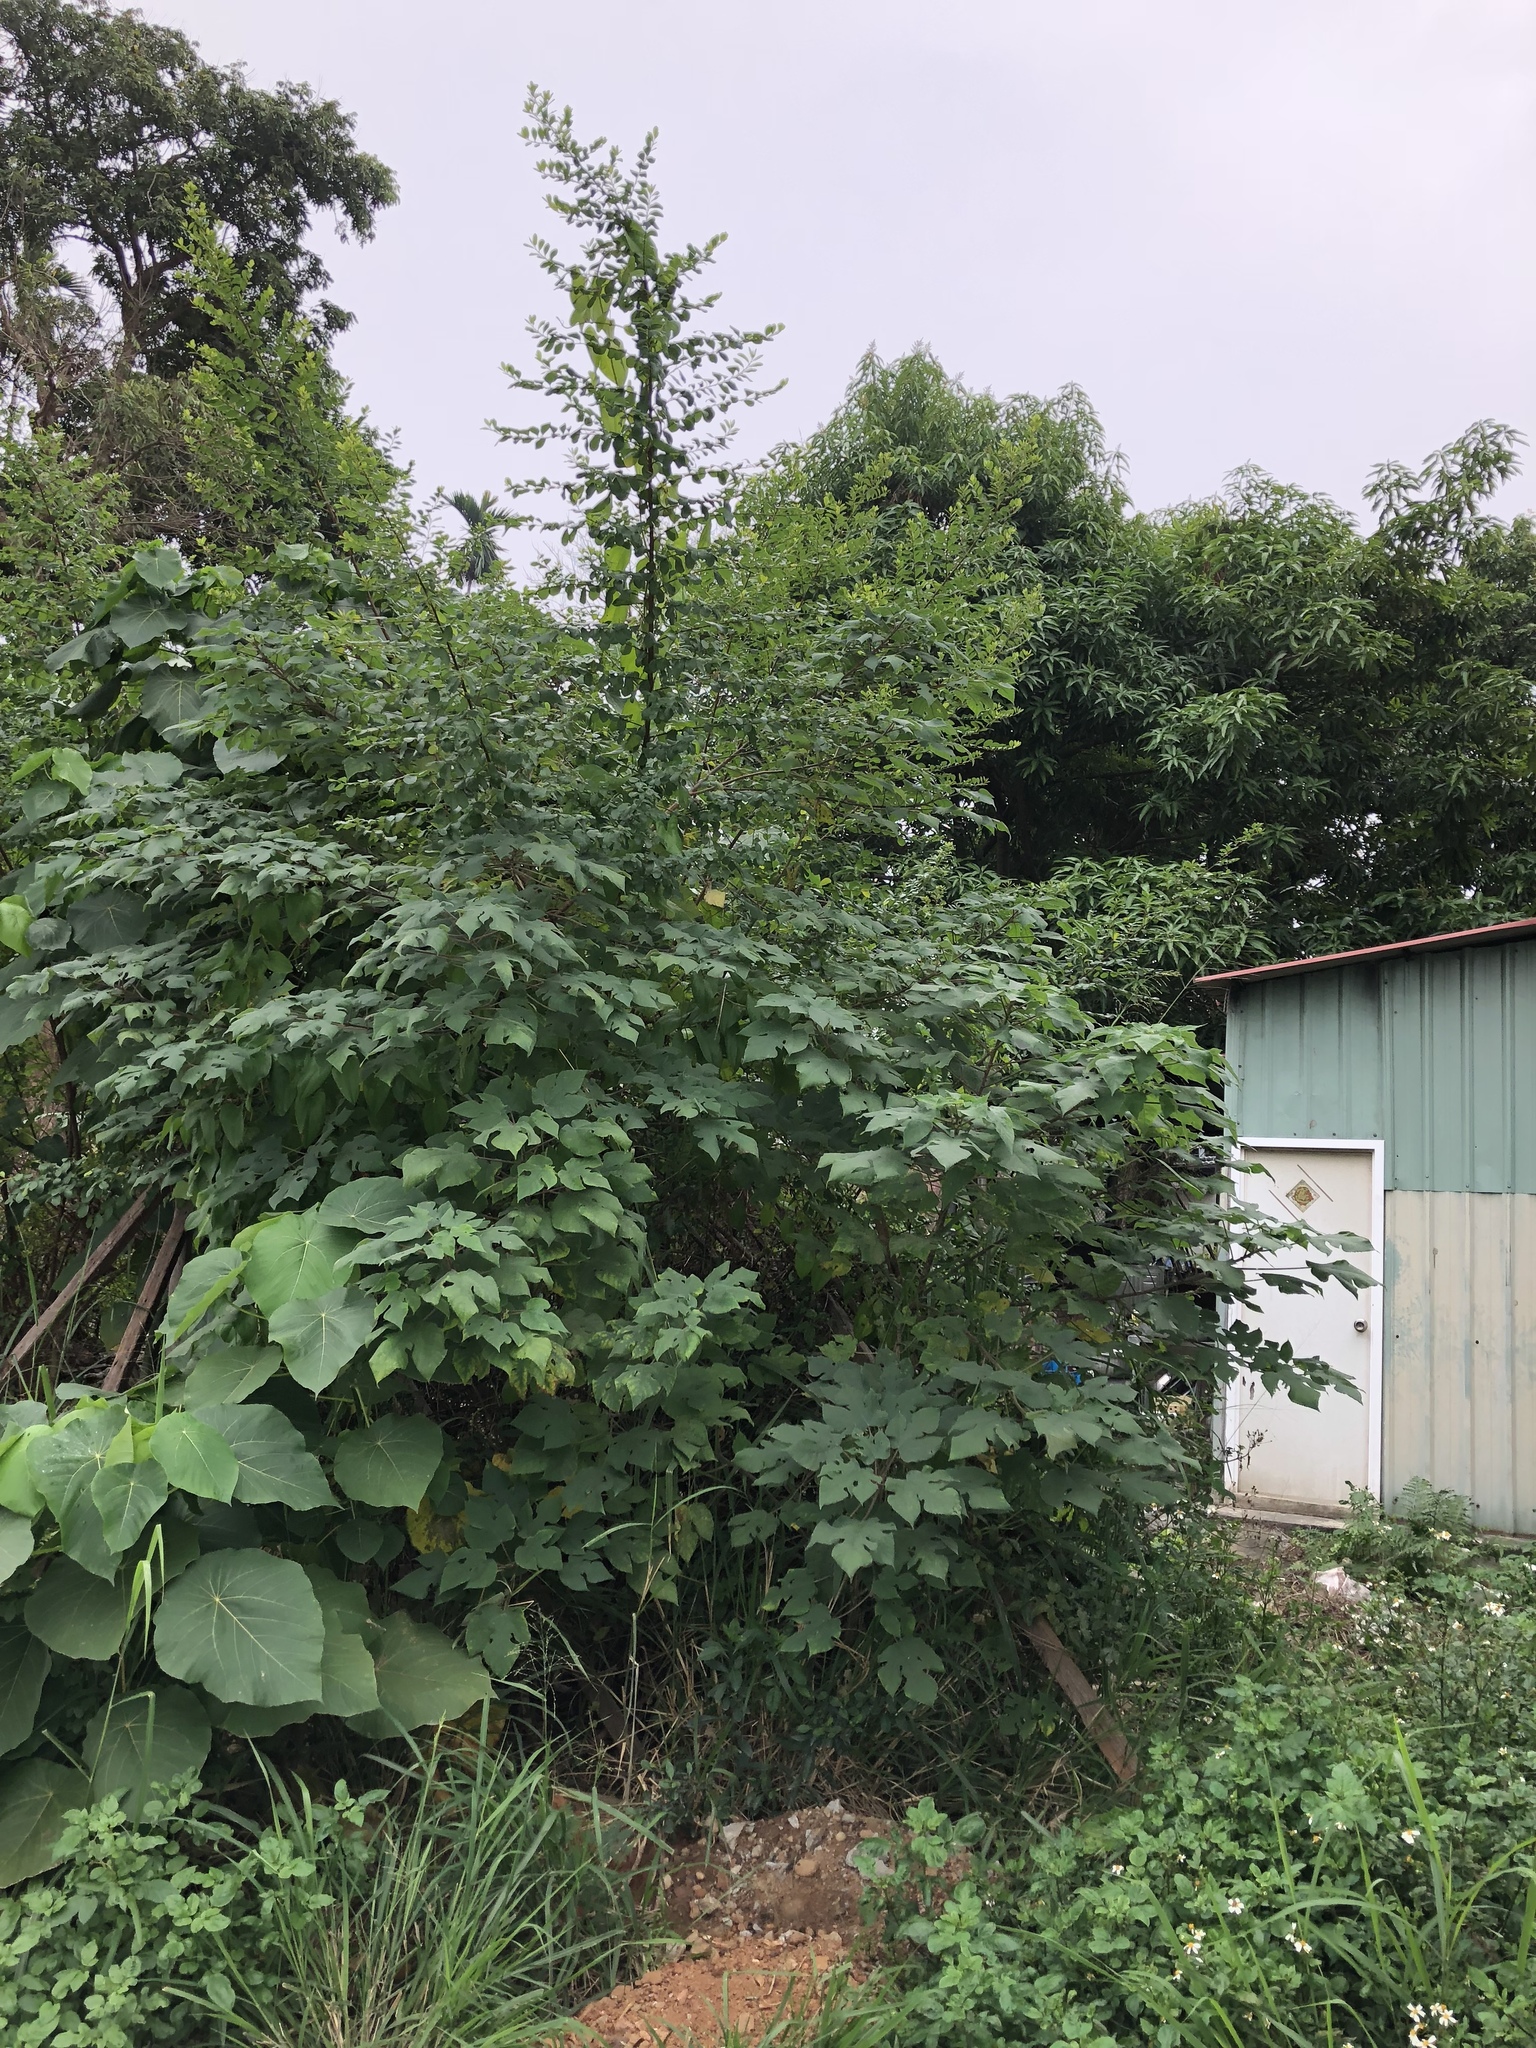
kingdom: Plantae
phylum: Tracheophyta
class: Magnoliopsida
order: Rosales
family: Moraceae
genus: Broussonetia
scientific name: Broussonetia papyrifera
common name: Paper mulberry
